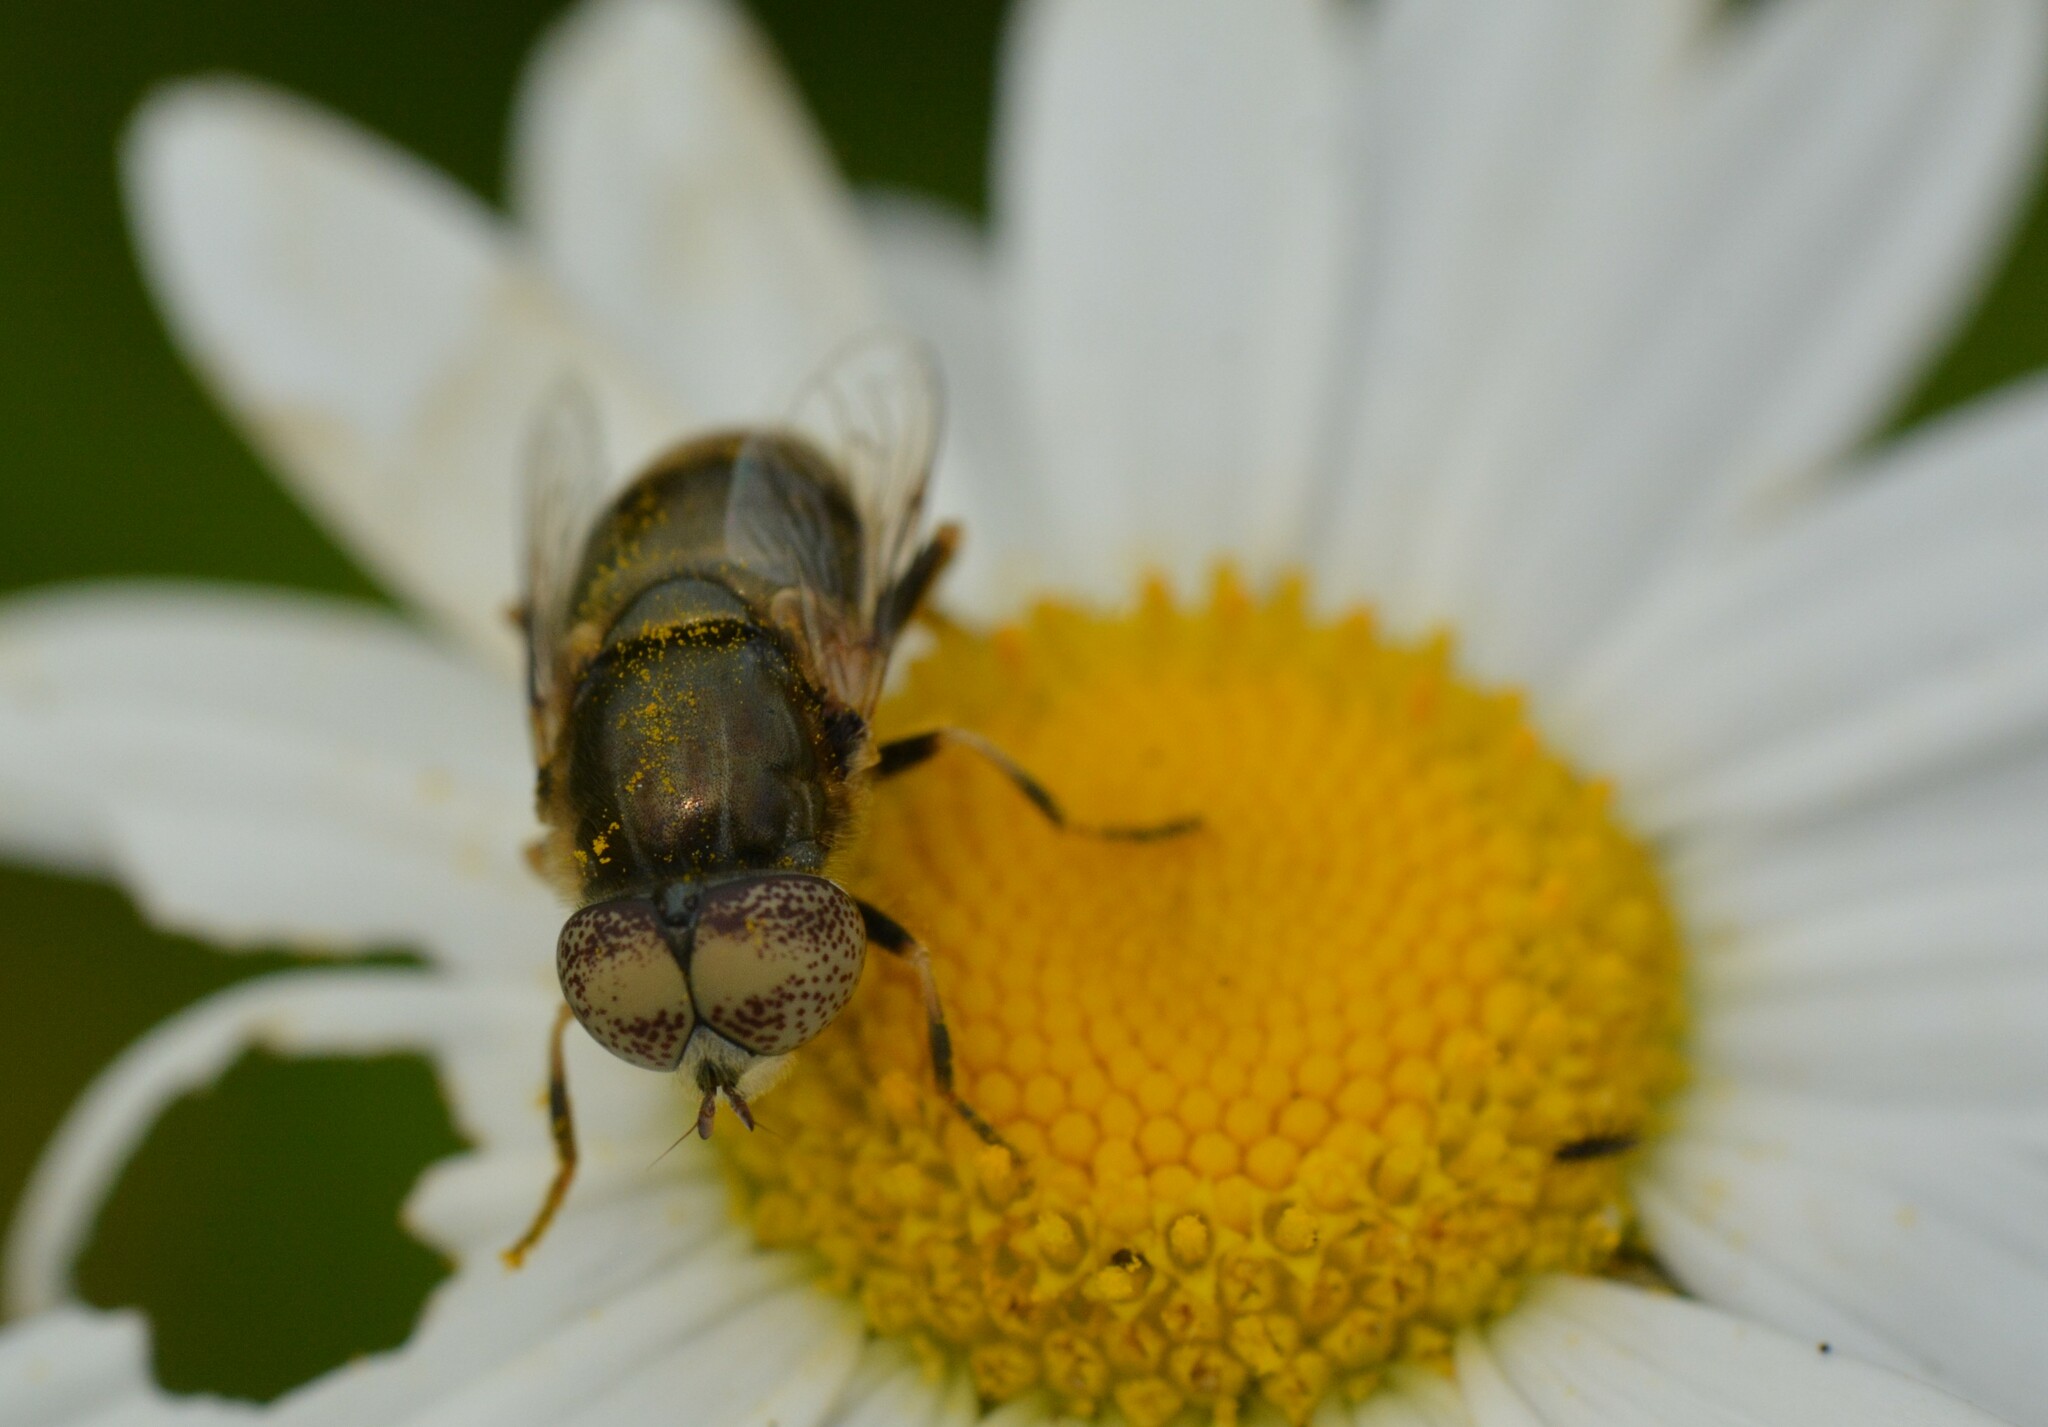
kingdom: Animalia
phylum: Arthropoda
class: Insecta
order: Diptera
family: Syrphidae
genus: Eristalinus
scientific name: Eristalinus aeneus
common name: Syrphid fly
